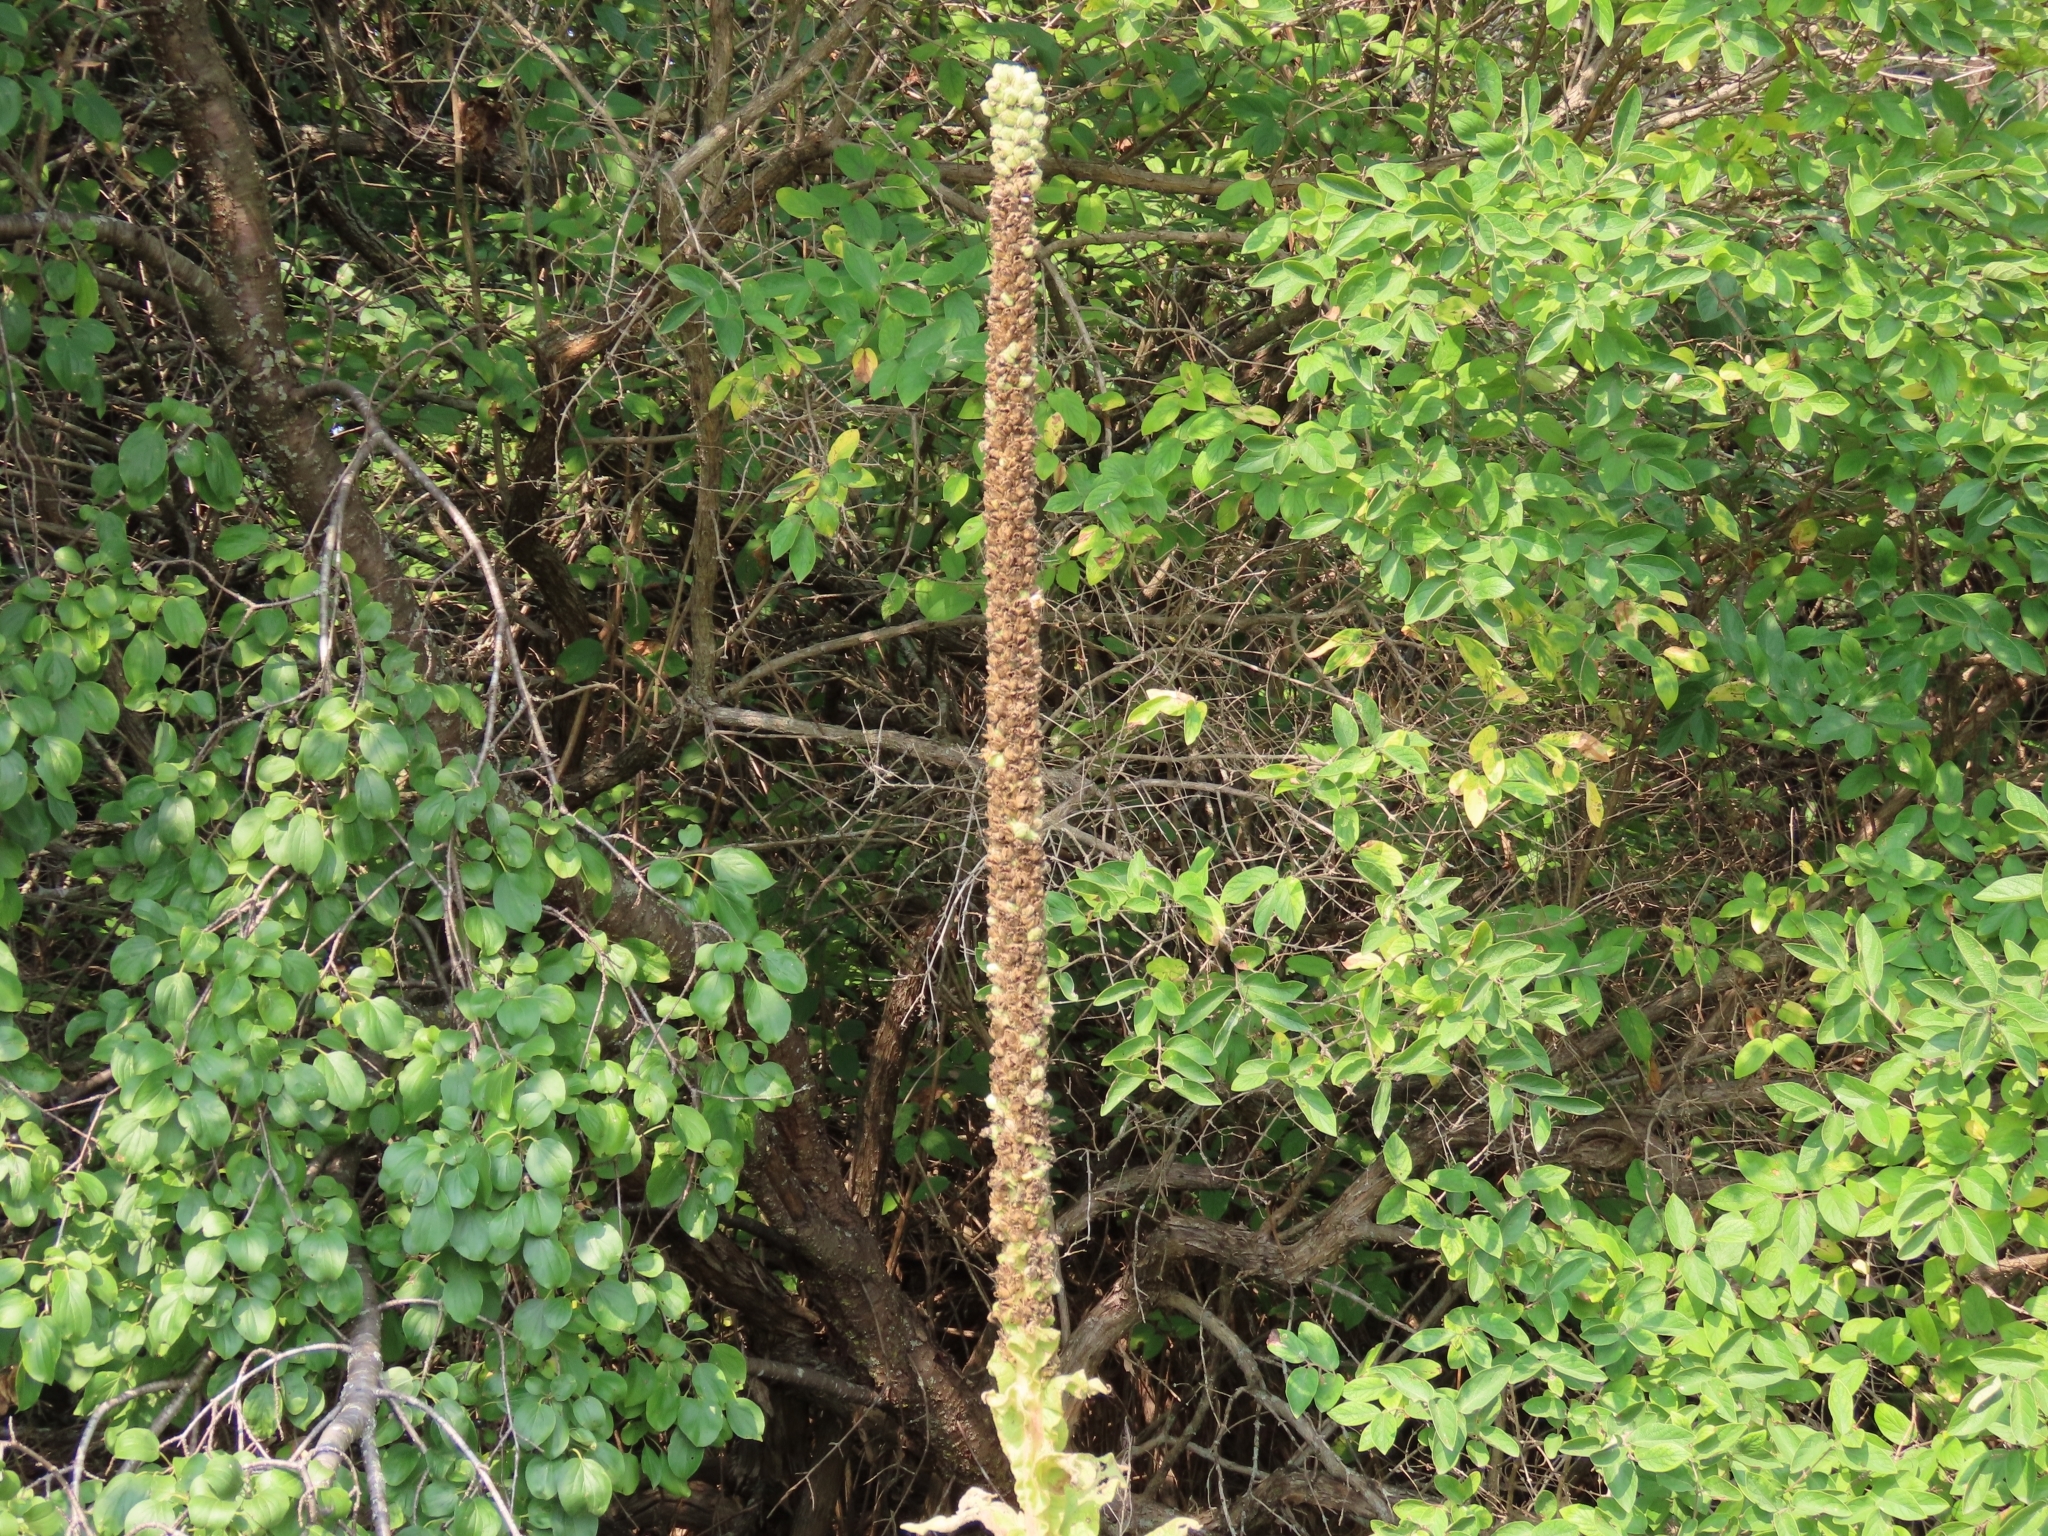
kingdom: Plantae
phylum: Tracheophyta
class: Magnoliopsida
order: Lamiales
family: Scrophulariaceae
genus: Verbascum
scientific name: Verbascum thapsus
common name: Common mullein
